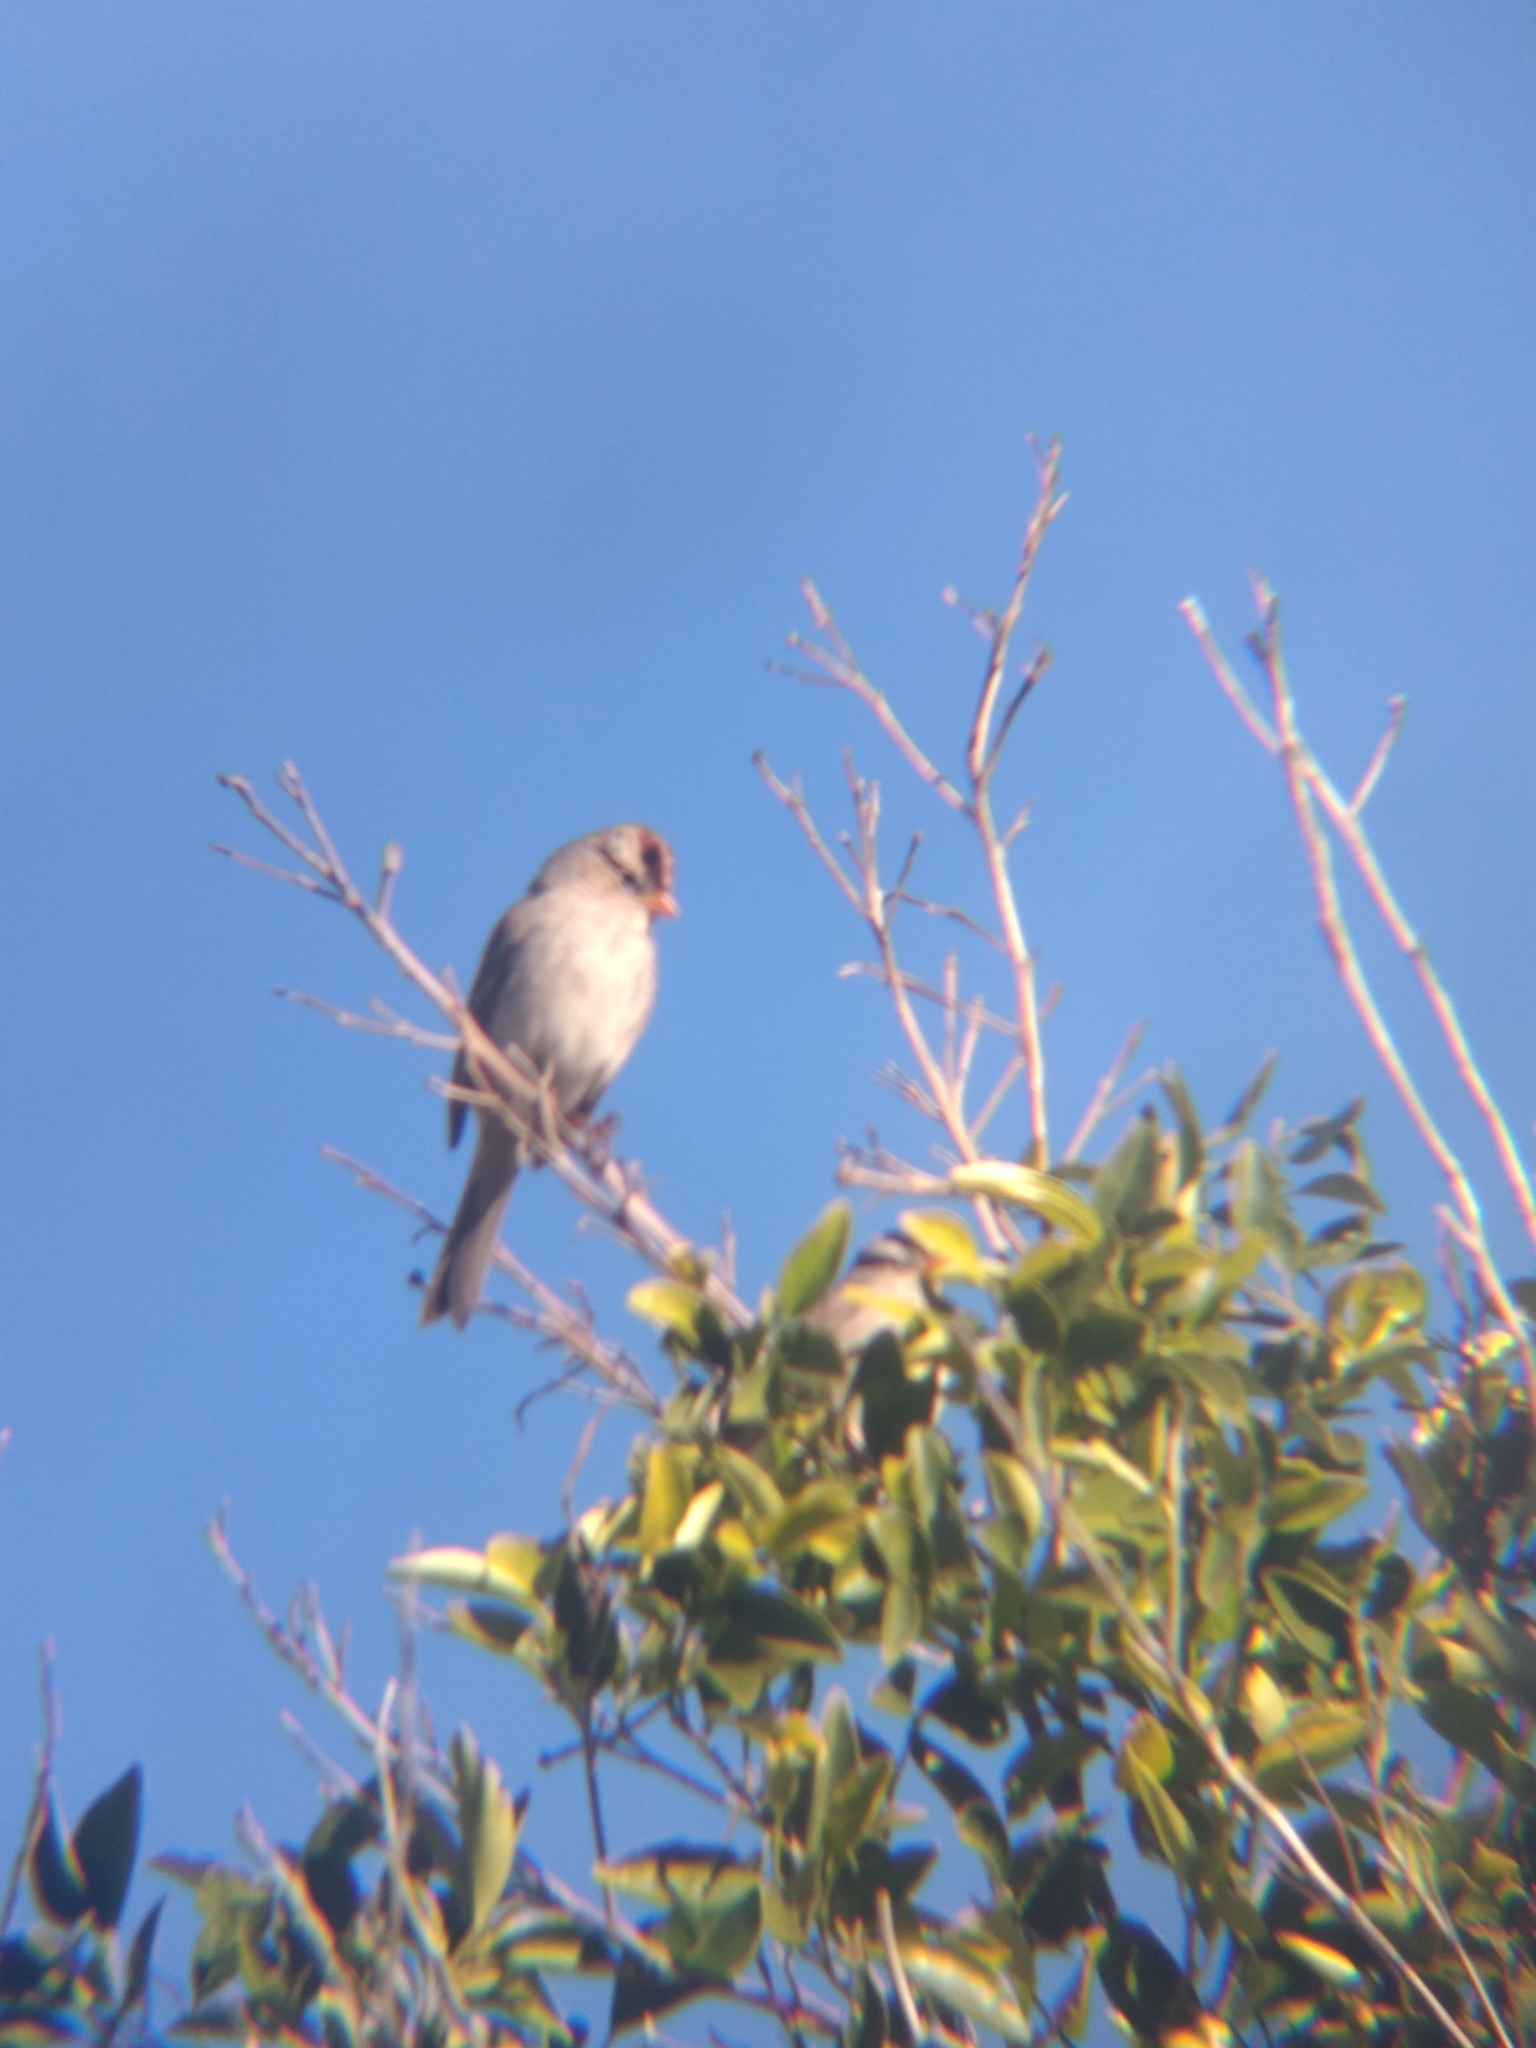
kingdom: Animalia
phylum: Chordata
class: Aves
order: Passeriformes
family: Passerellidae
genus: Zonotrichia
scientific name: Zonotrichia leucophrys
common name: White-crowned sparrow
